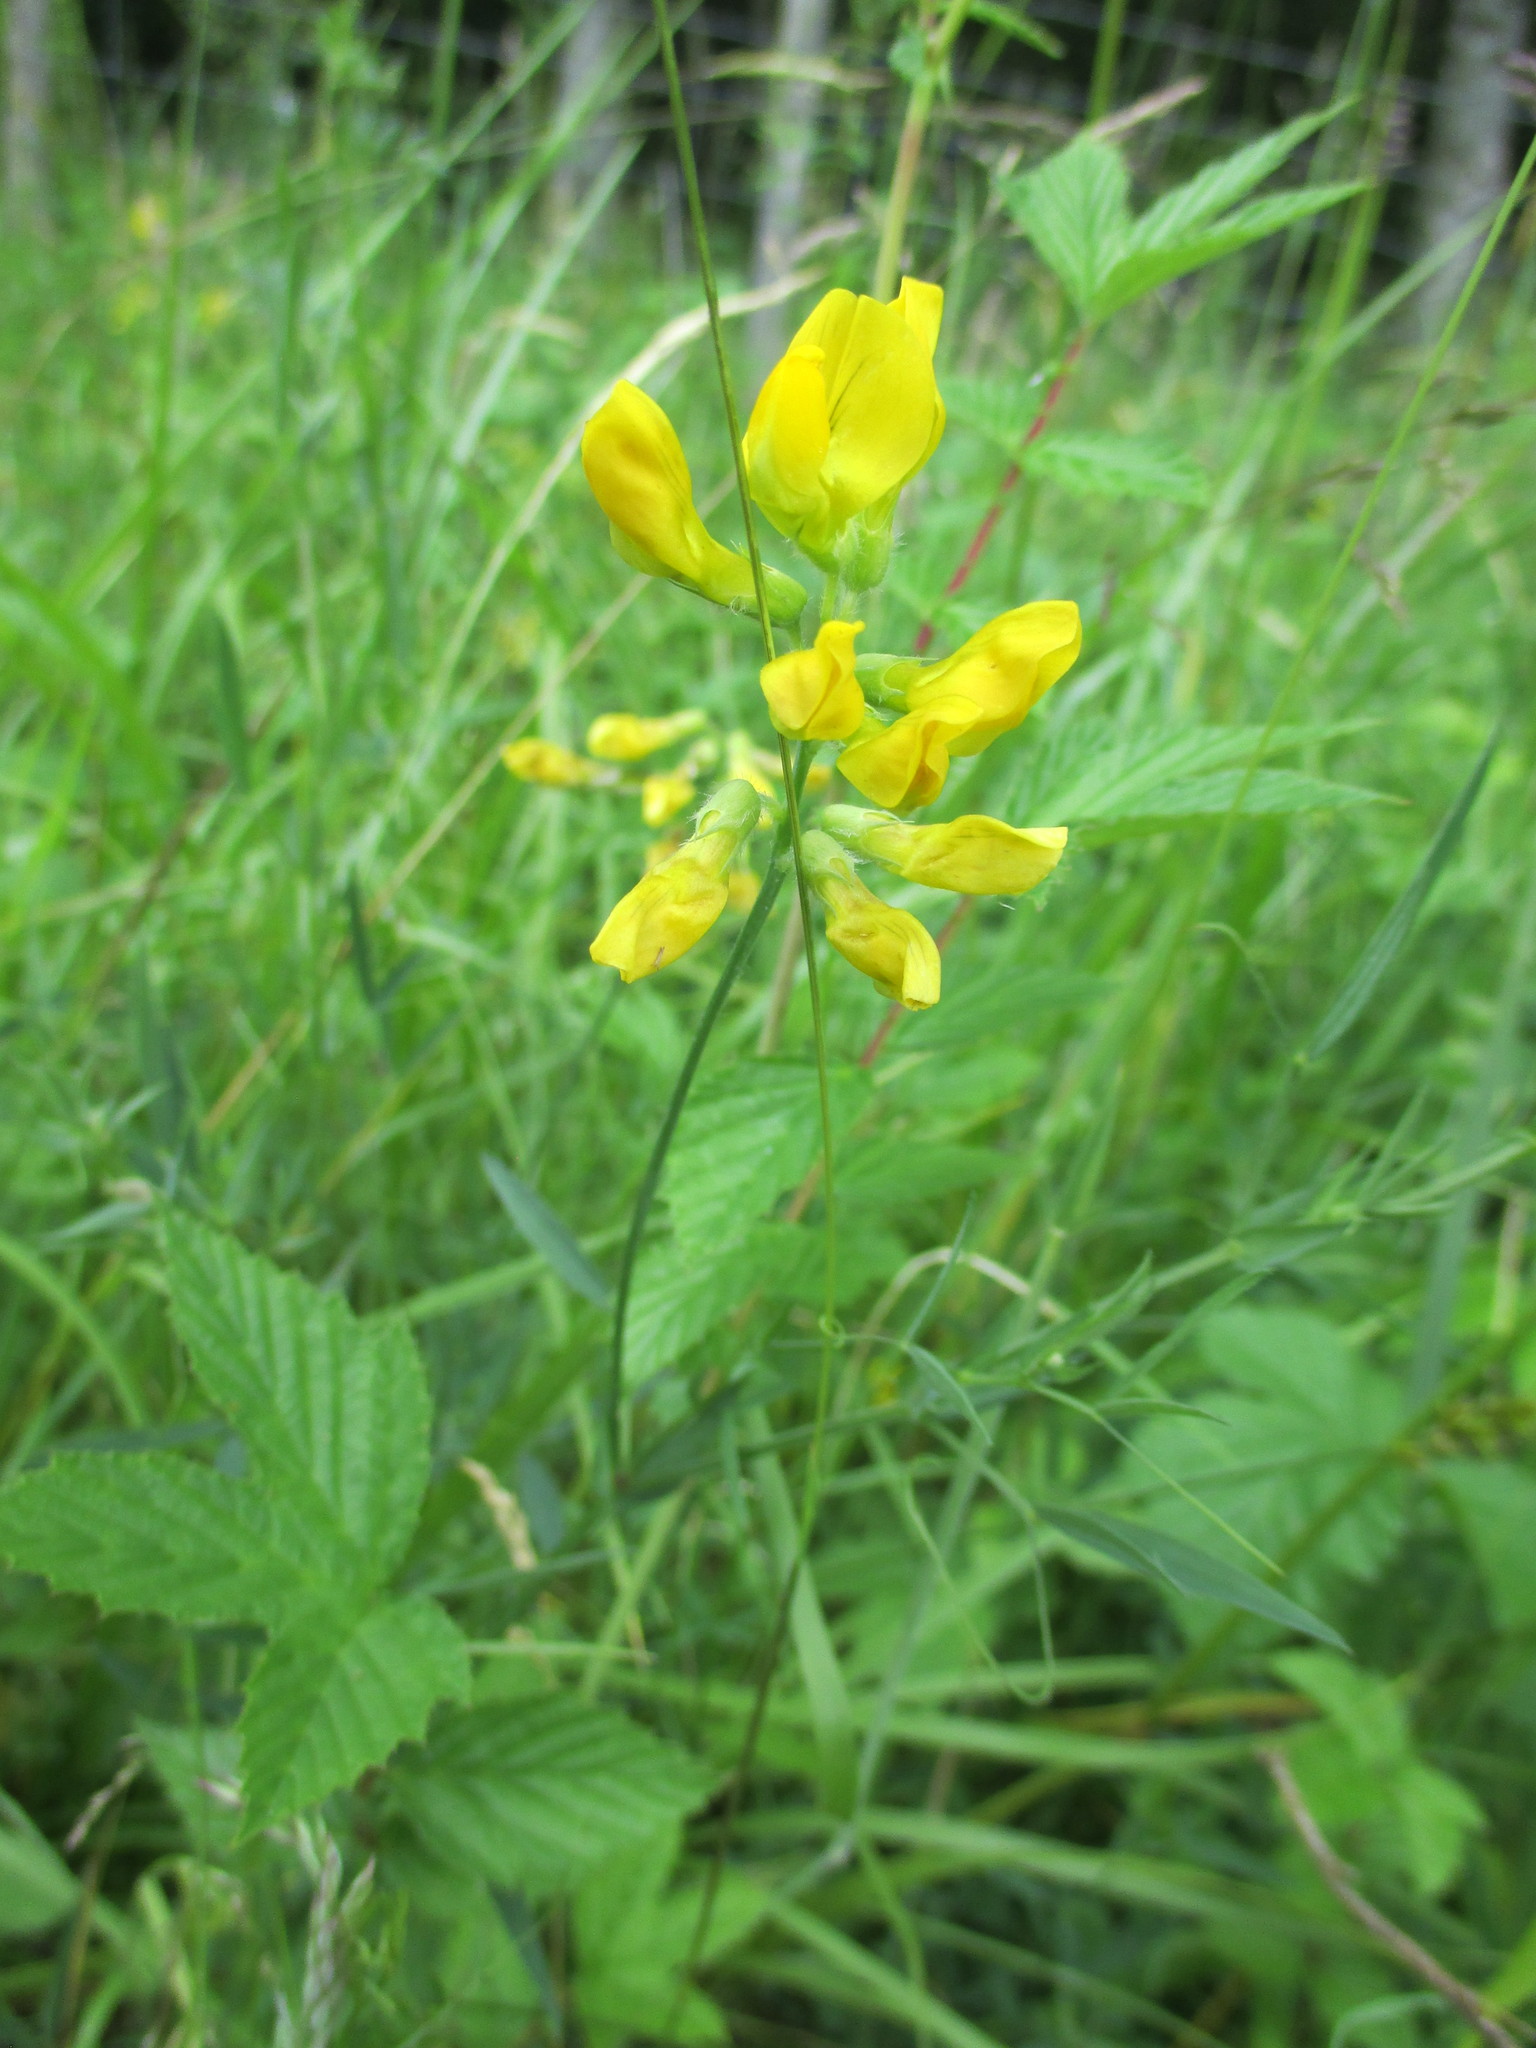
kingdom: Plantae
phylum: Tracheophyta
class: Magnoliopsida
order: Fabales
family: Fabaceae
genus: Lathyrus
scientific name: Lathyrus pratensis
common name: Meadow vetchling
